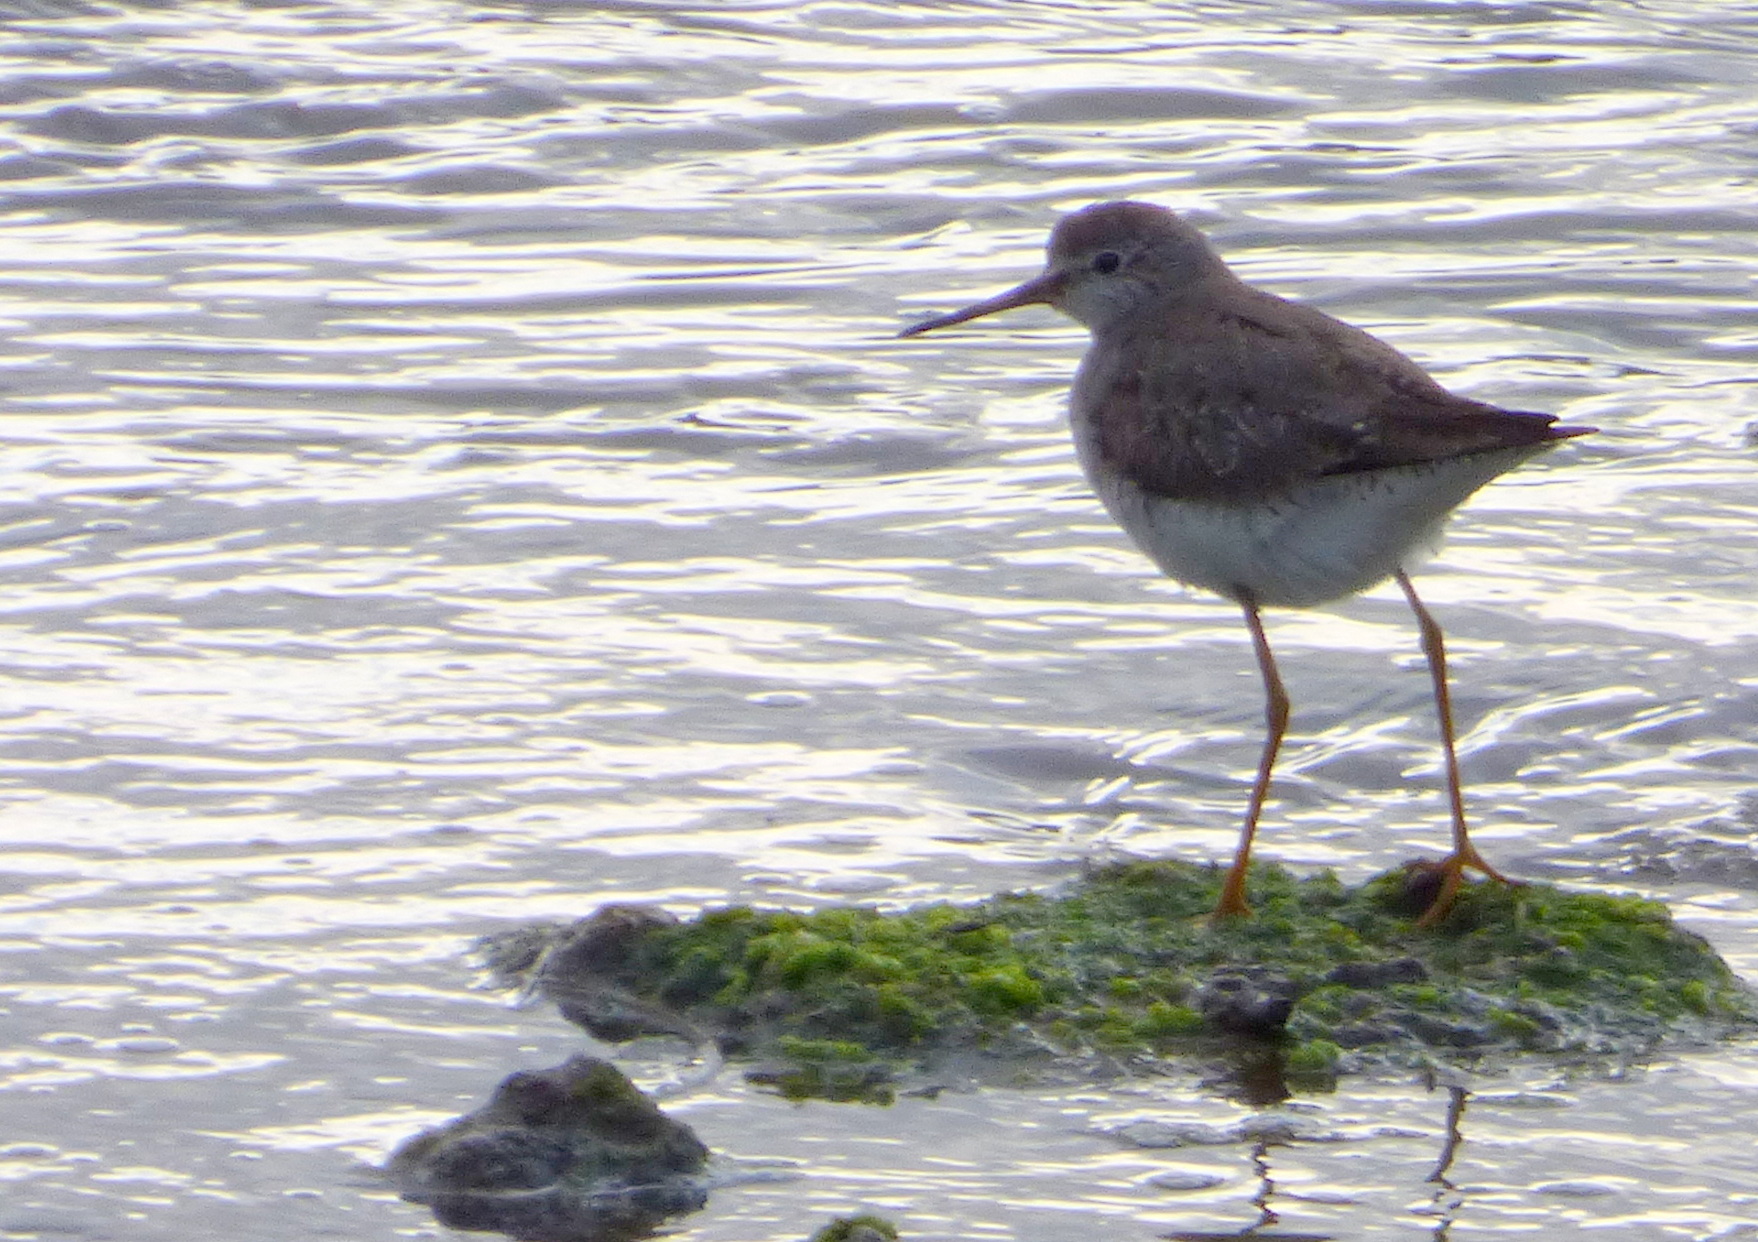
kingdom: Animalia
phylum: Chordata
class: Aves
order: Charadriiformes
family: Scolopacidae
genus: Tringa
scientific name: Tringa flavipes
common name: Lesser yellowlegs
